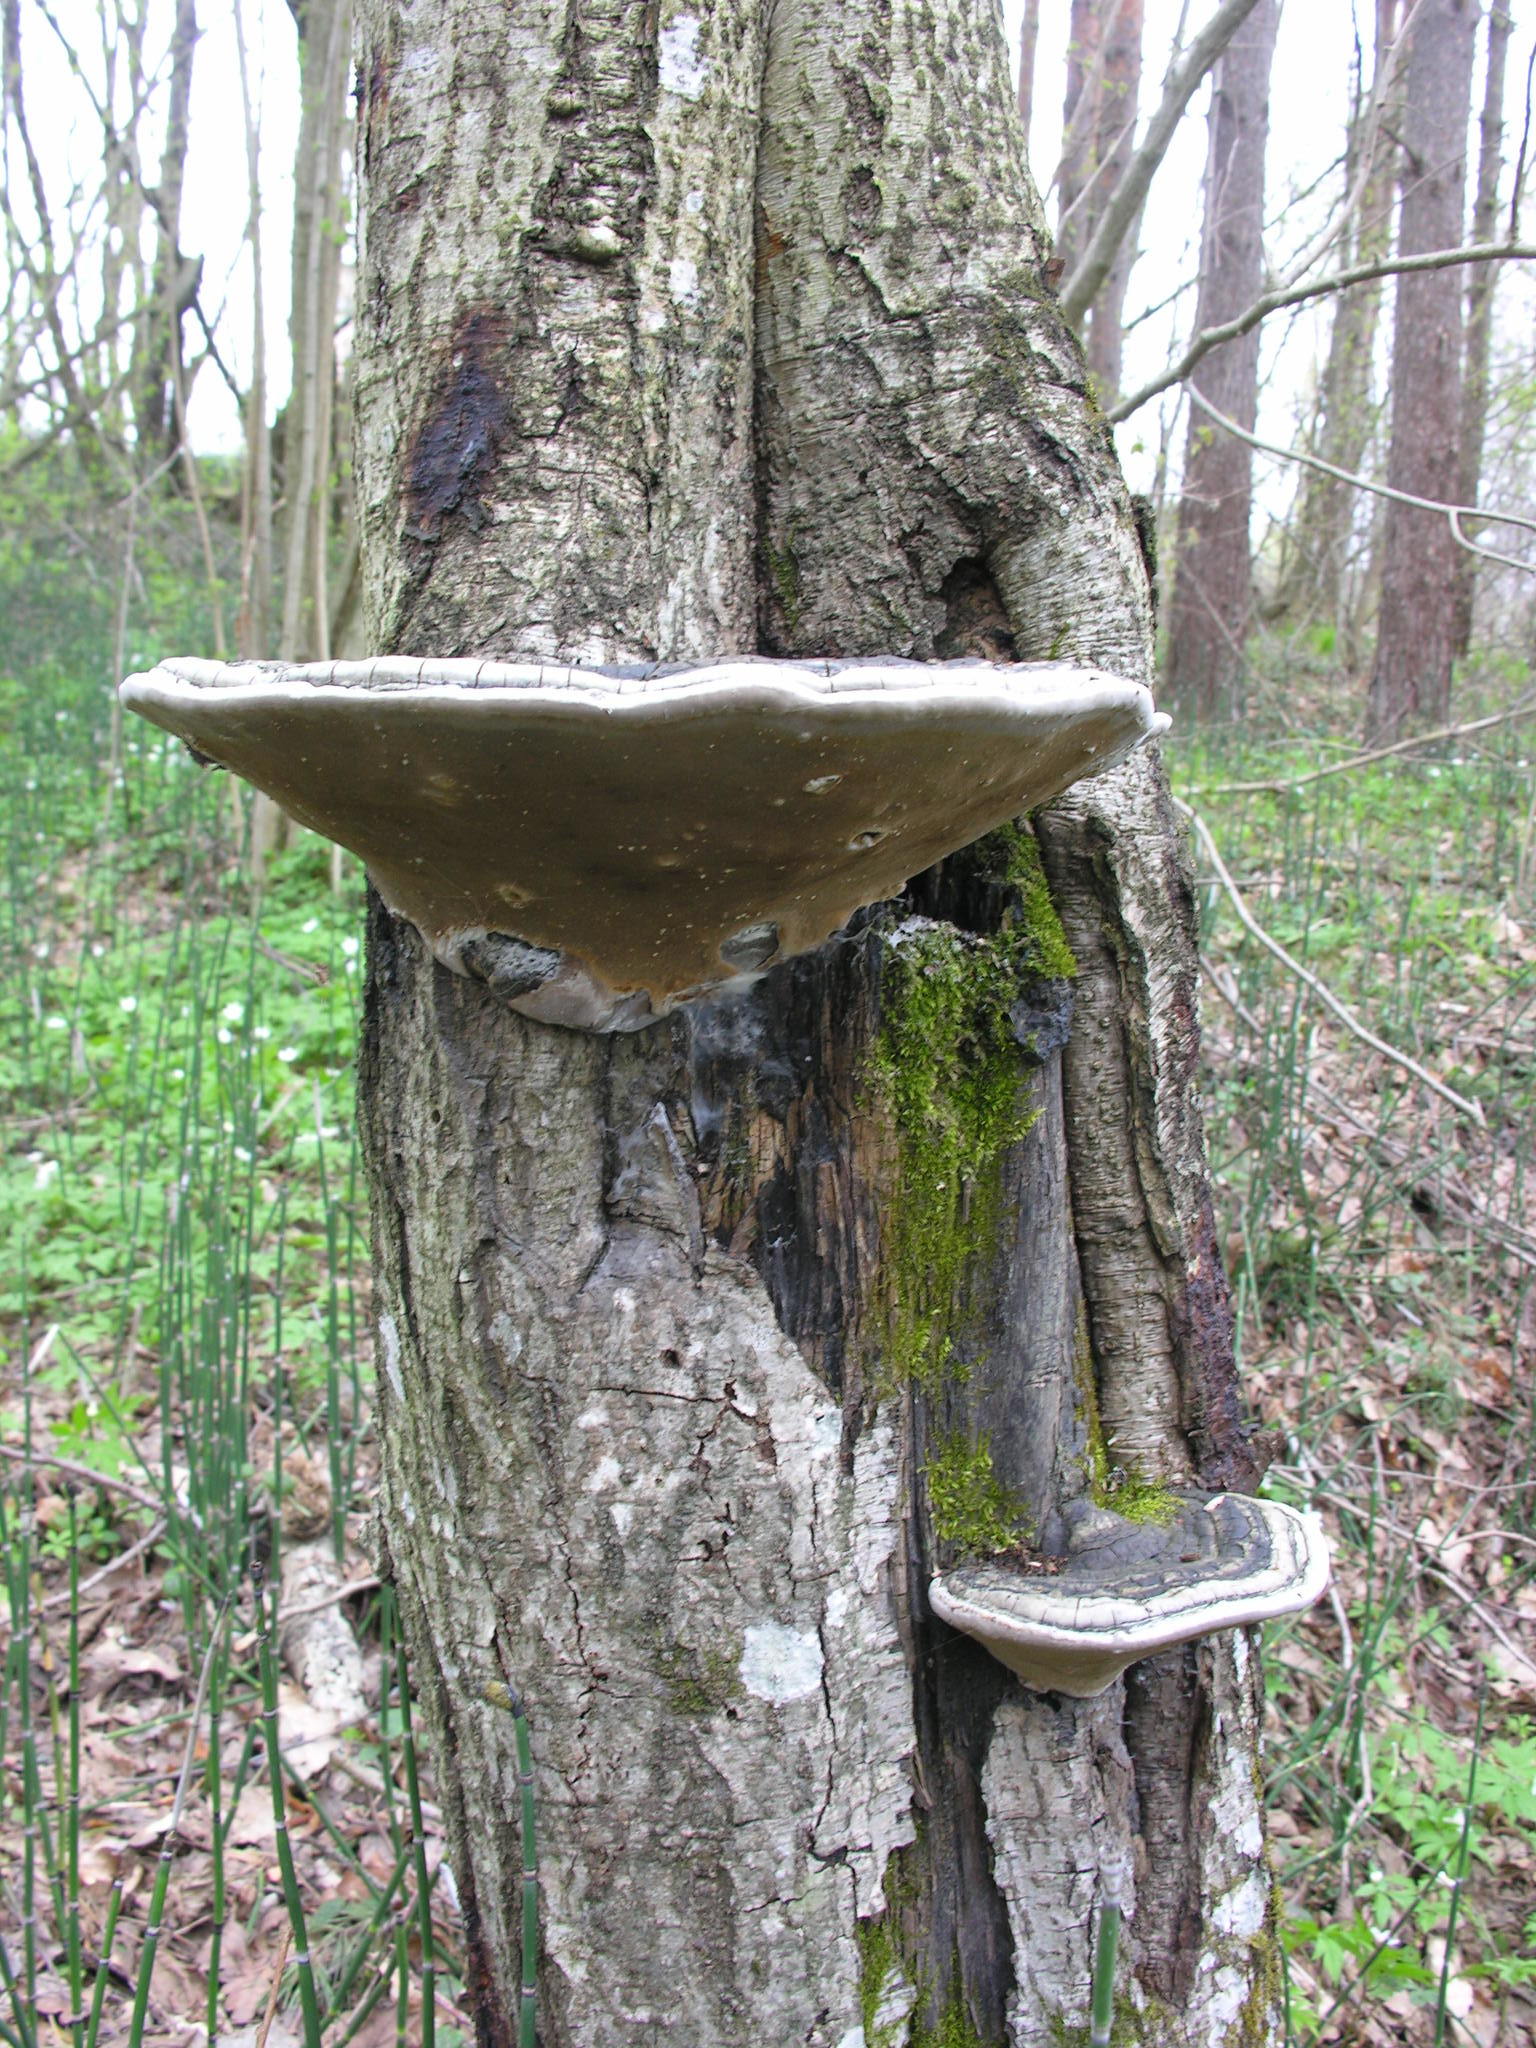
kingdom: Fungi
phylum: Basidiomycota
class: Agaricomycetes
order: Hymenochaetales
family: Hymenochaetaceae
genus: Phellinus
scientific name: Phellinus igniarius
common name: Willow bracket
